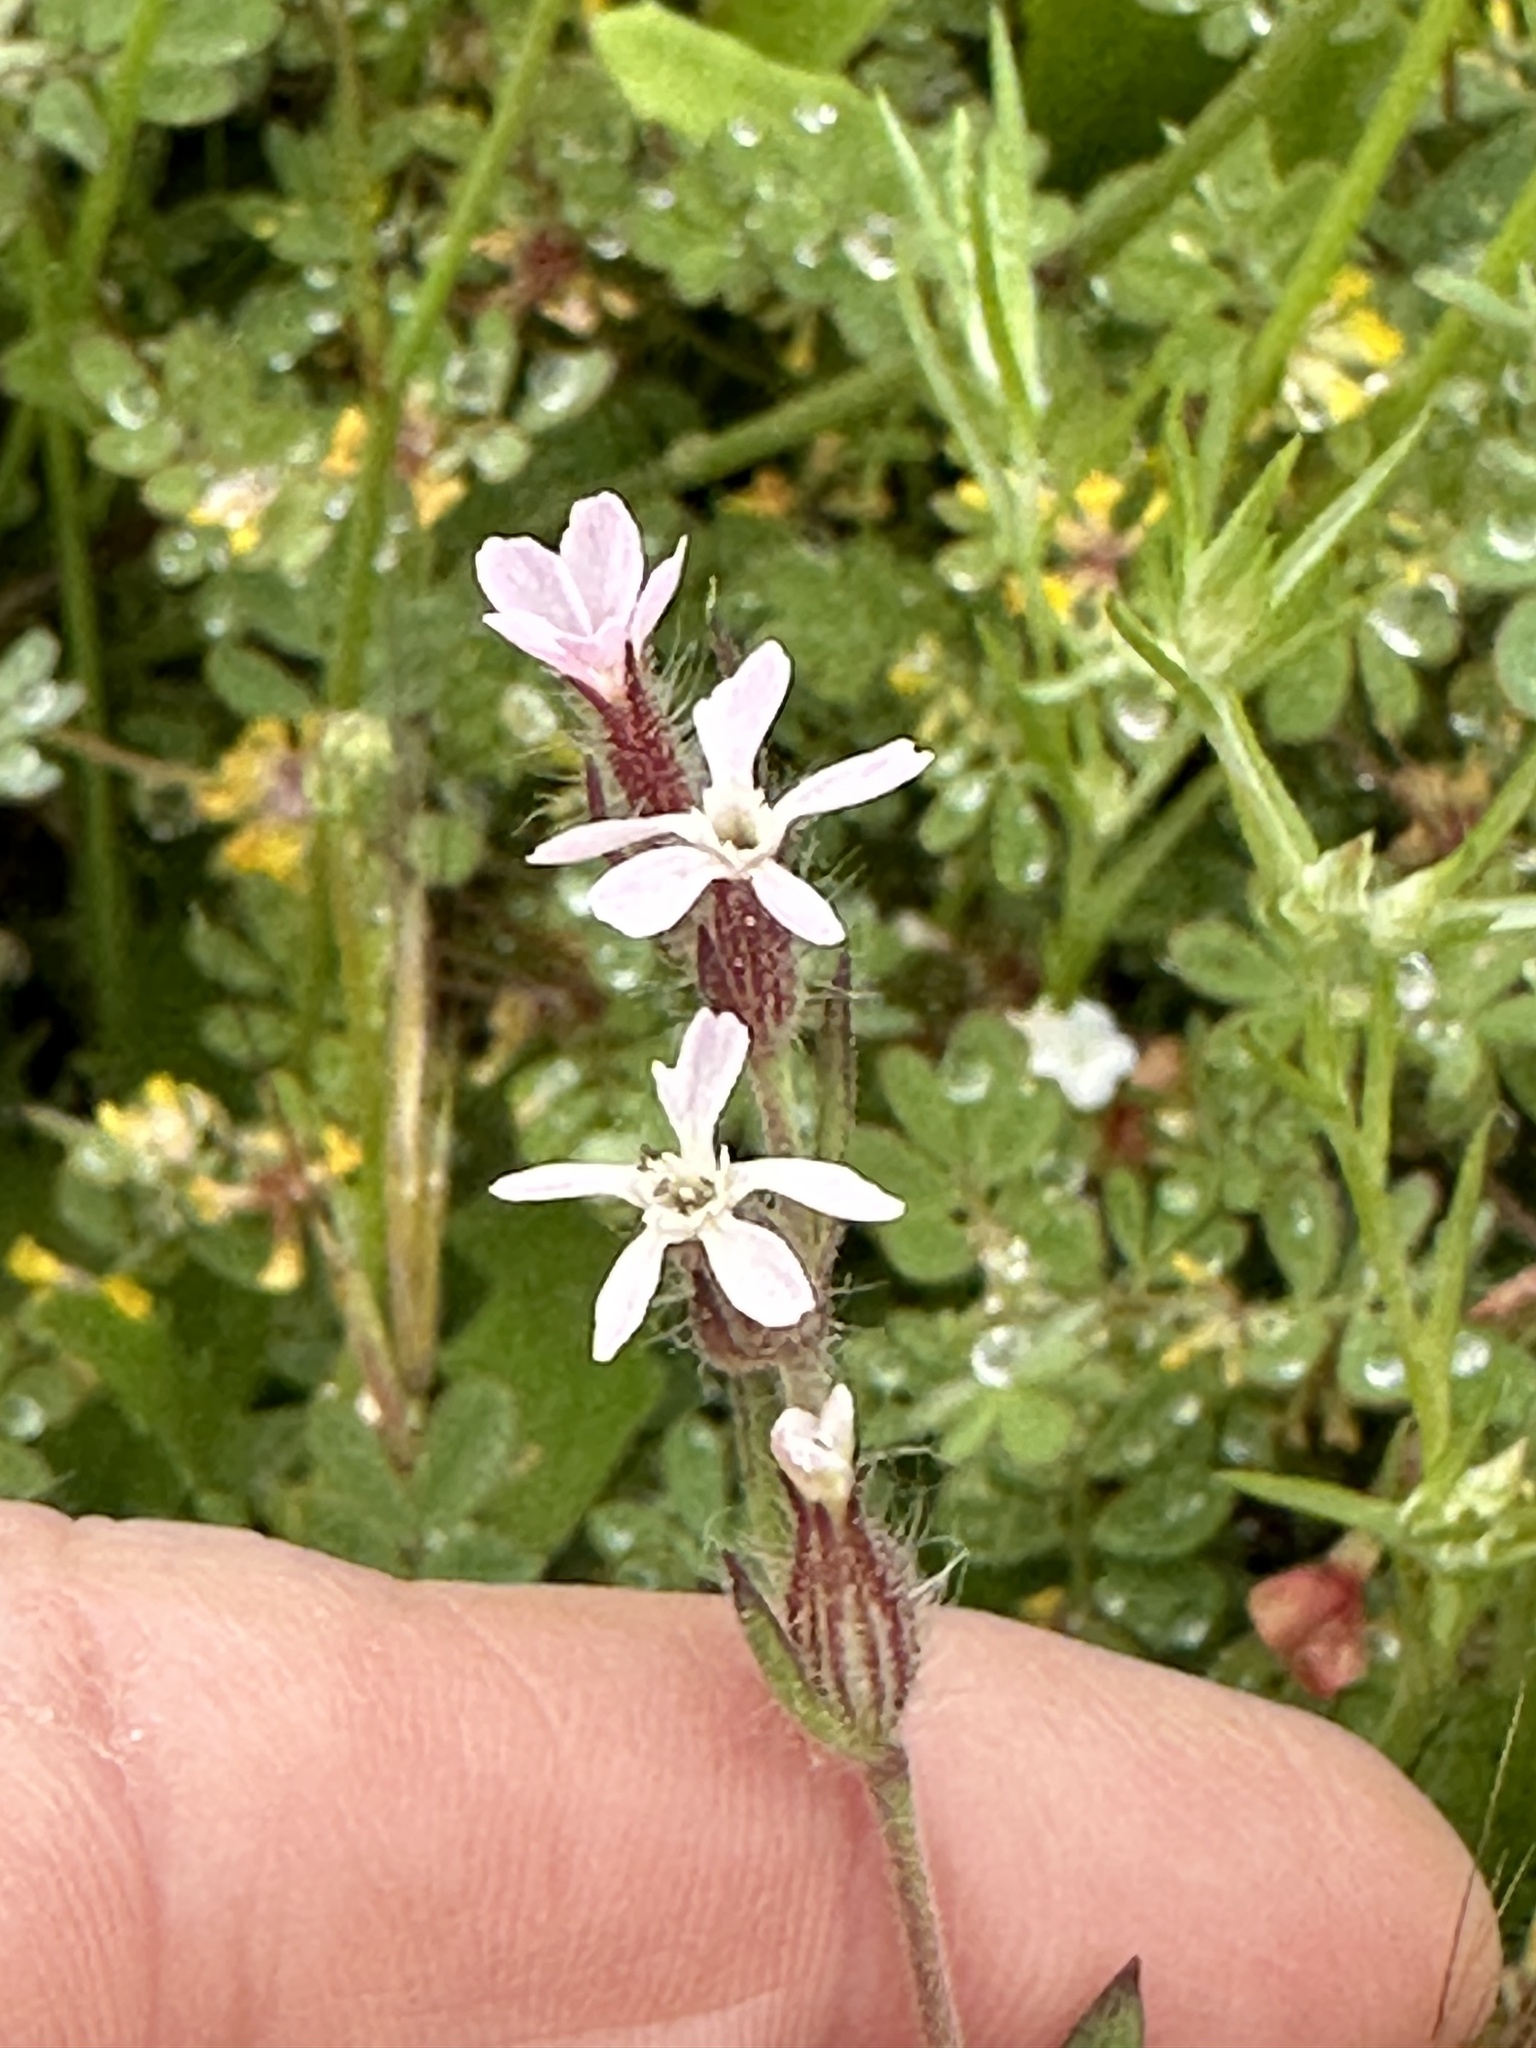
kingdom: Plantae
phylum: Tracheophyta
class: Magnoliopsida
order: Caryophyllales
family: Caryophyllaceae
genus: Silene
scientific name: Silene gallica
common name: Small-flowered catchfly
